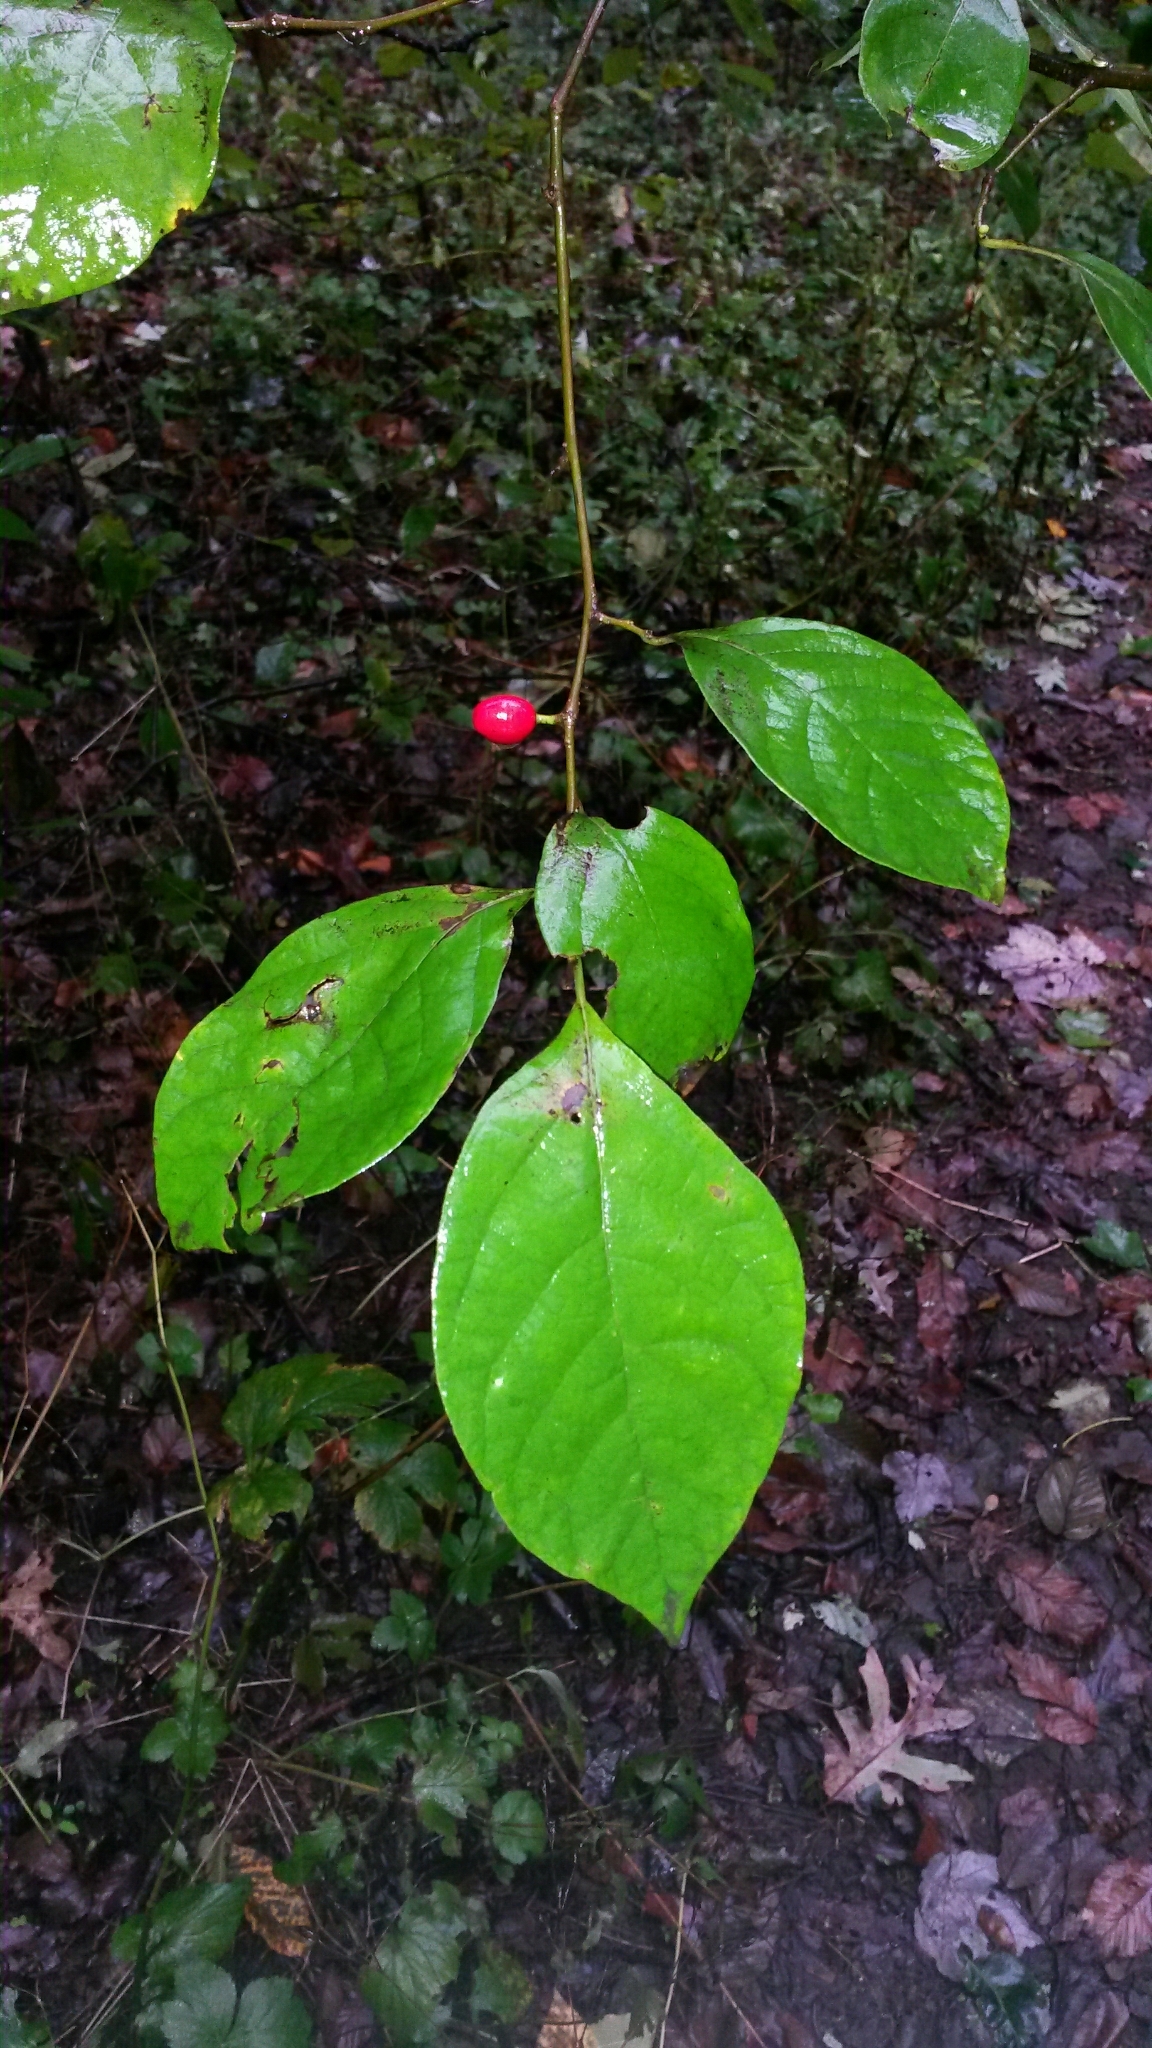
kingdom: Plantae
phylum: Tracheophyta
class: Magnoliopsida
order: Laurales
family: Lauraceae
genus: Lindera
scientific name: Lindera benzoin
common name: Spicebush
